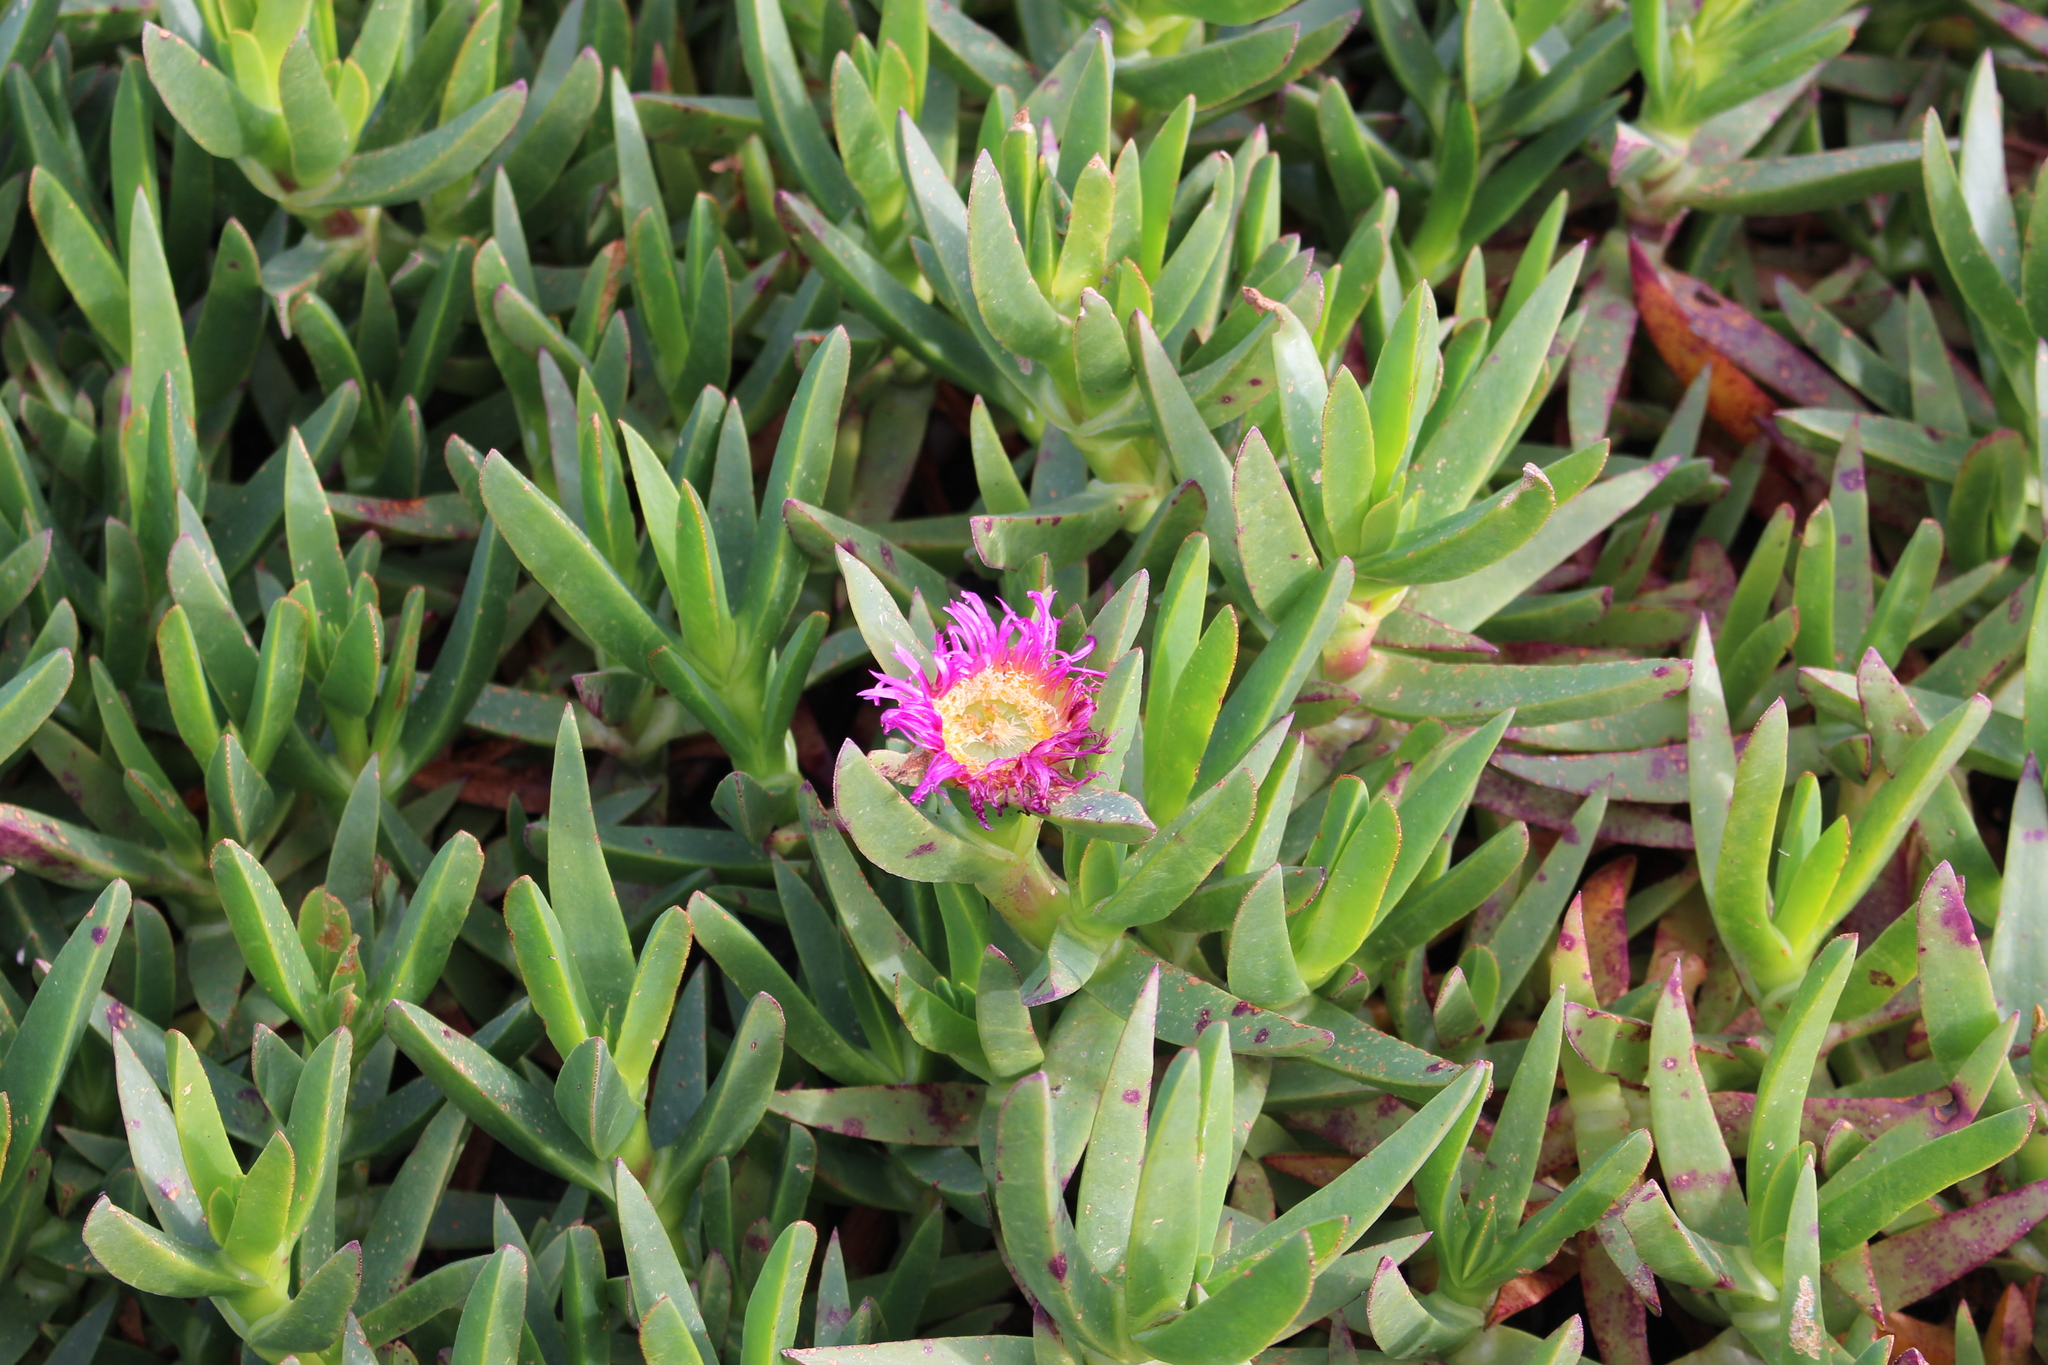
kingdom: Plantae
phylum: Tracheophyta
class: Magnoliopsida
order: Caryophyllales
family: Aizoaceae
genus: Carpobrotus
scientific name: Carpobrotus chilensis
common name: Sea fig
